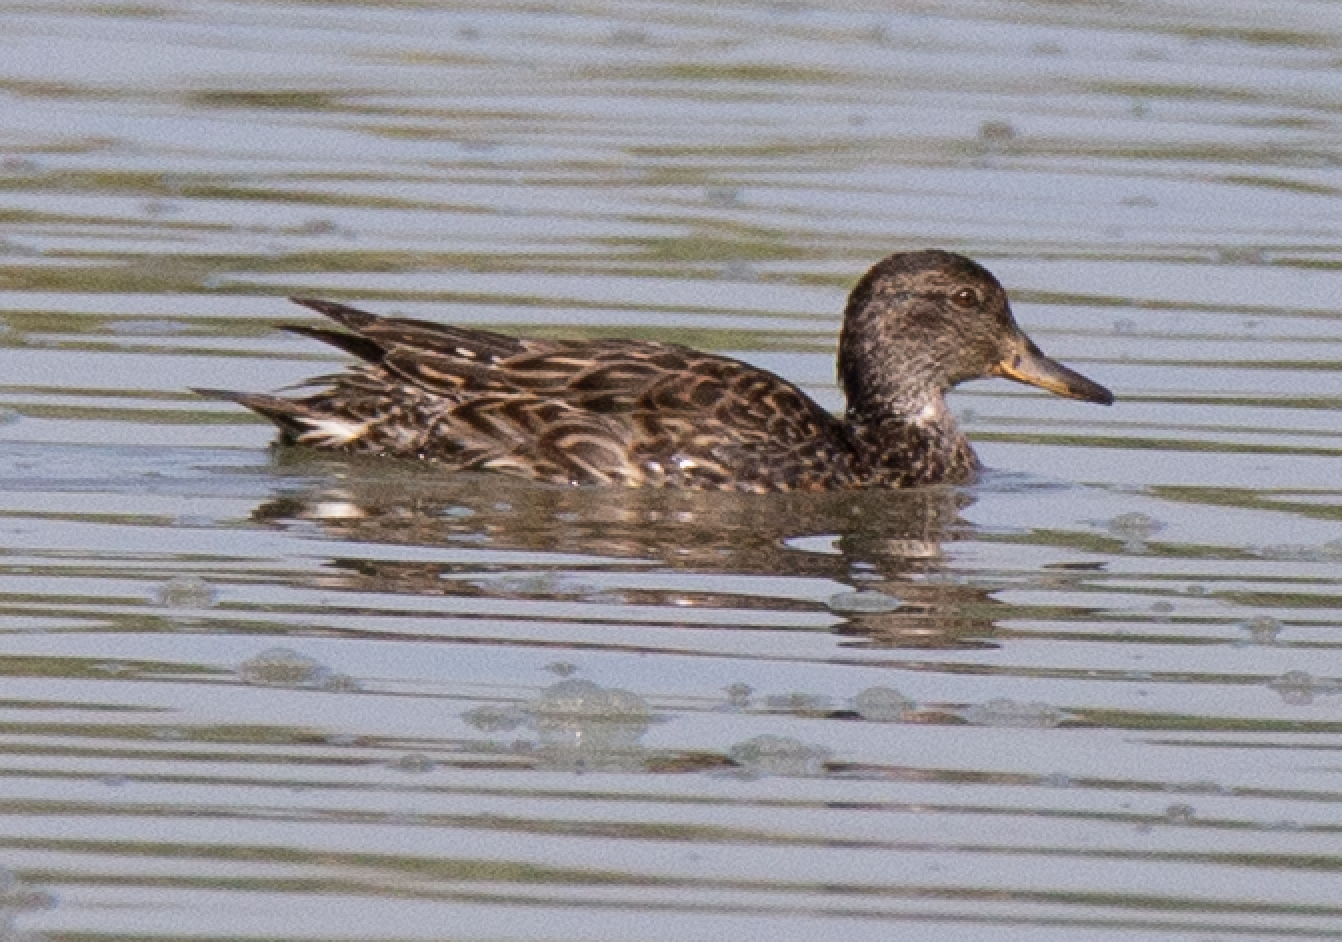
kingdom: Animalia
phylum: Chordata
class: Aves
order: Anseriformes
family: Anatidae
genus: Anas
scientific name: Anas crecca
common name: Eurasian teal
